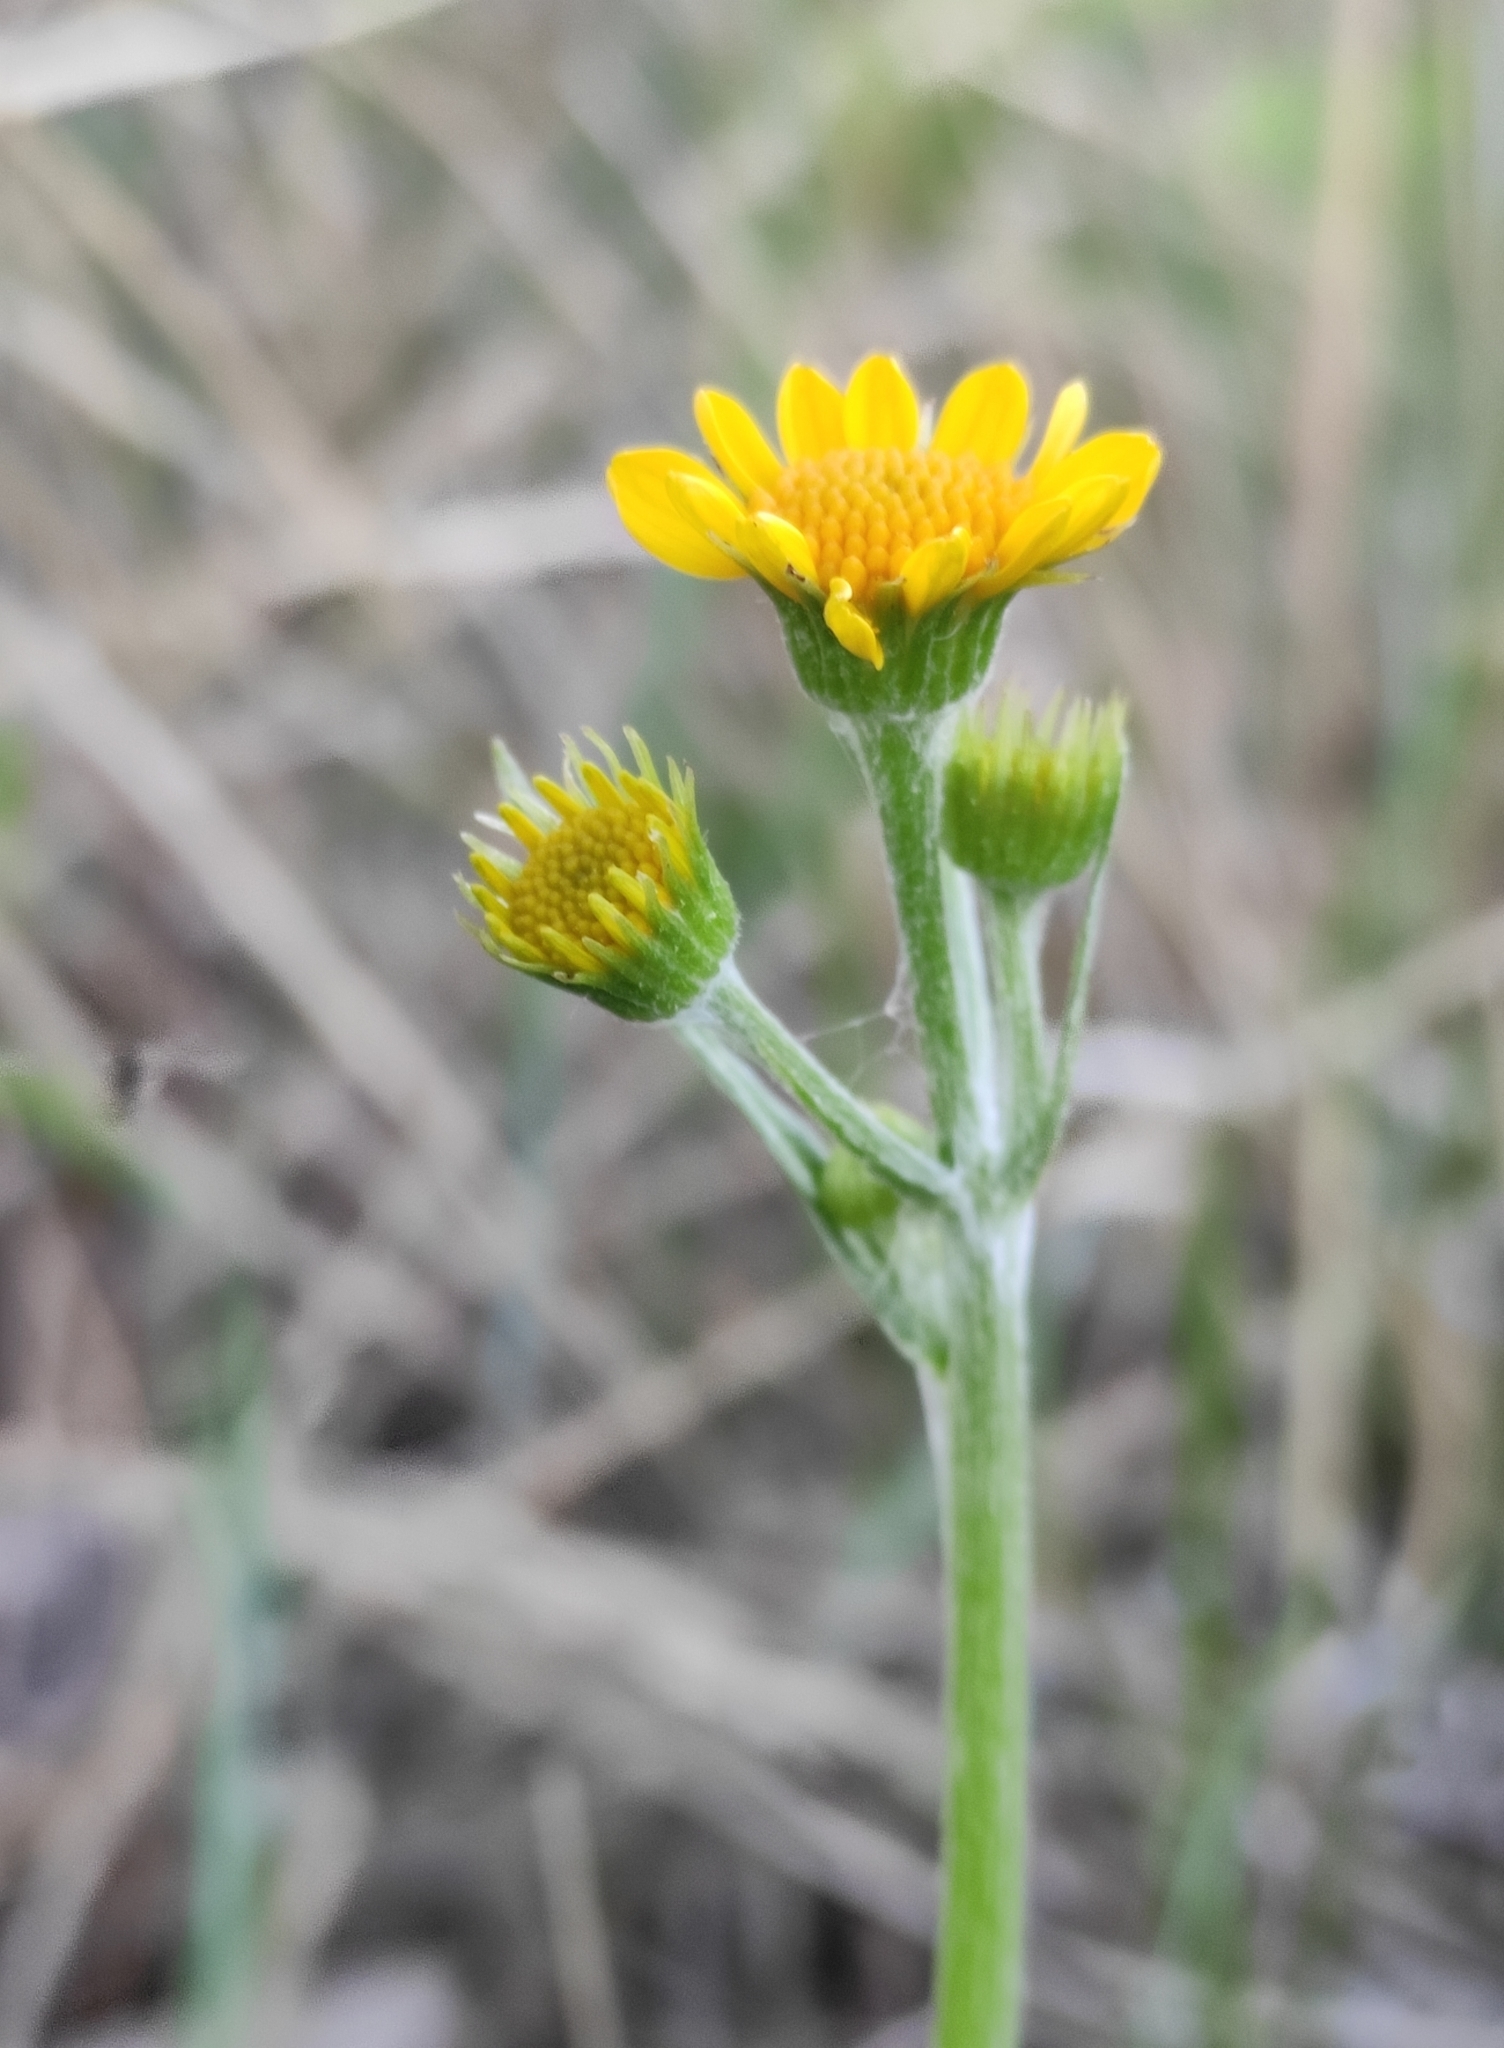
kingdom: Plantae
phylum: Tracheophyta
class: Magnoliopsida
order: Asterales
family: Asteraceae
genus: Tephroseris
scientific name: Tephroseris integrifolia
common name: Field fleawort
